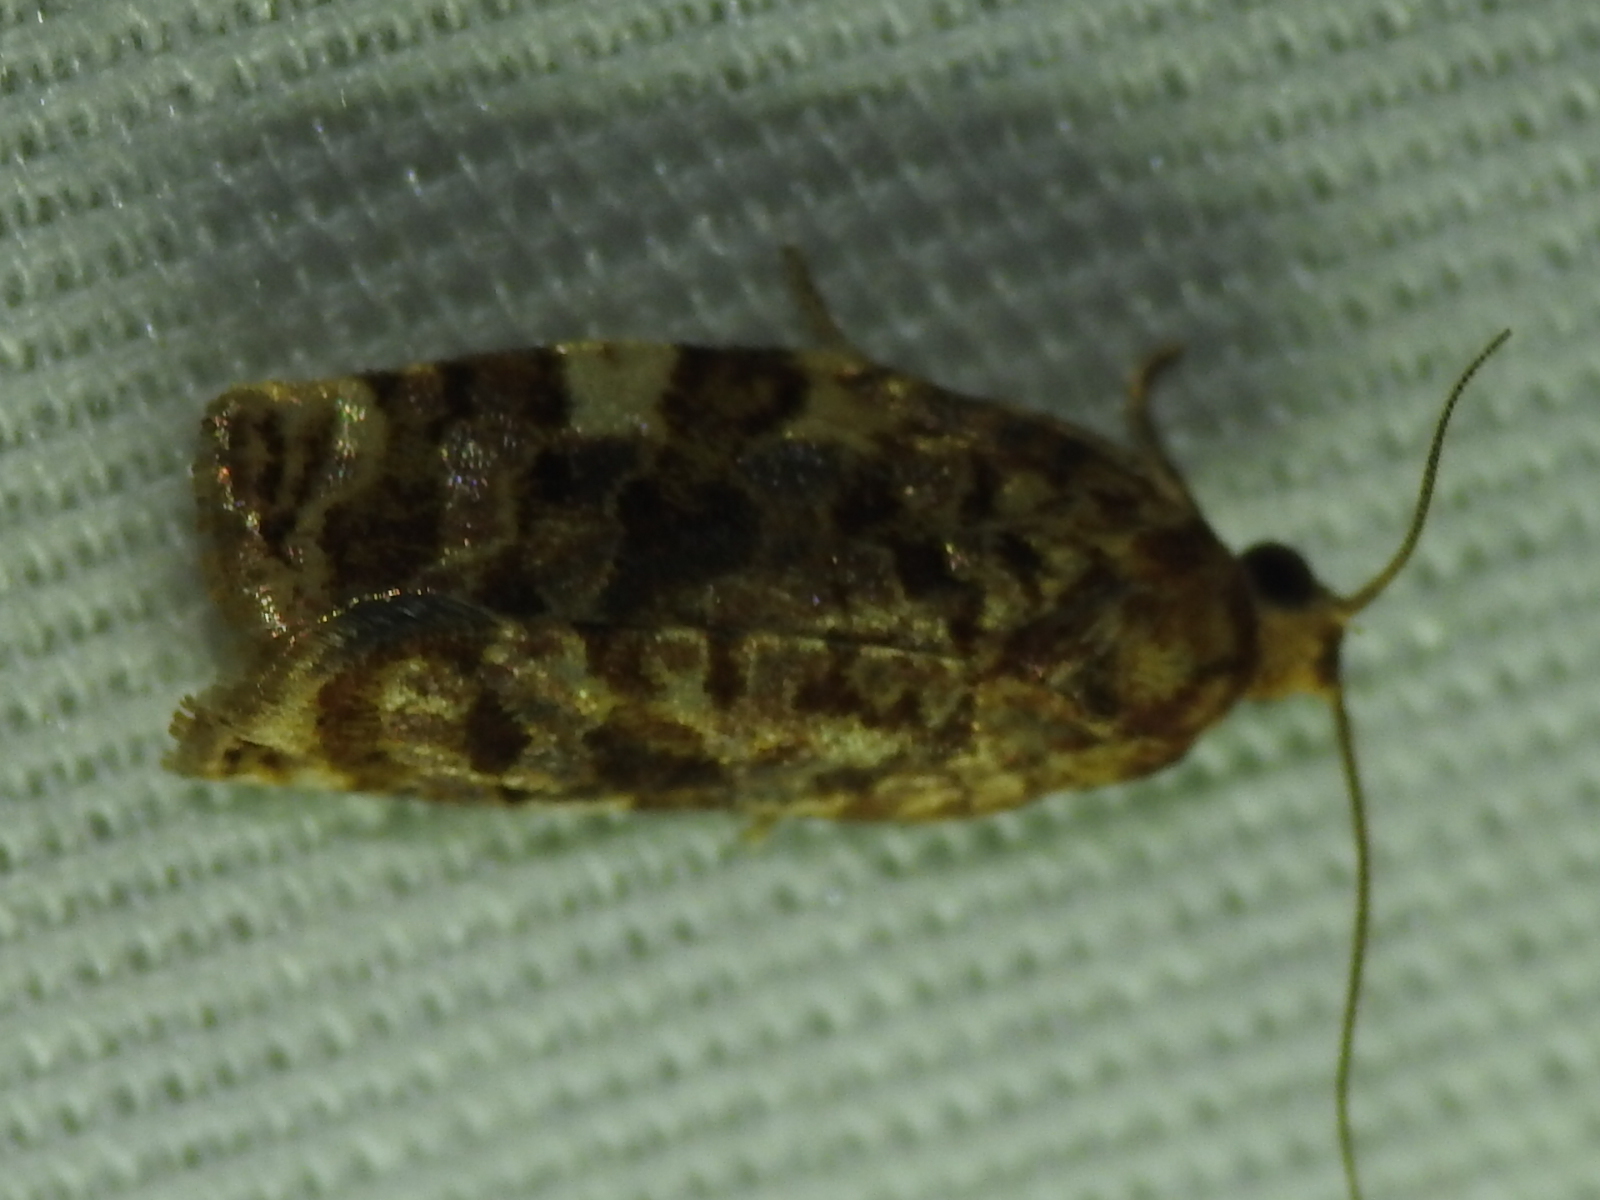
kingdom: Animalia
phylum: Arthropoda
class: Insecta
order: Lepidoptera
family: Tortricidae
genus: Archips
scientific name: Archips argyrospila
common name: Fruit-tree leafroller moth
